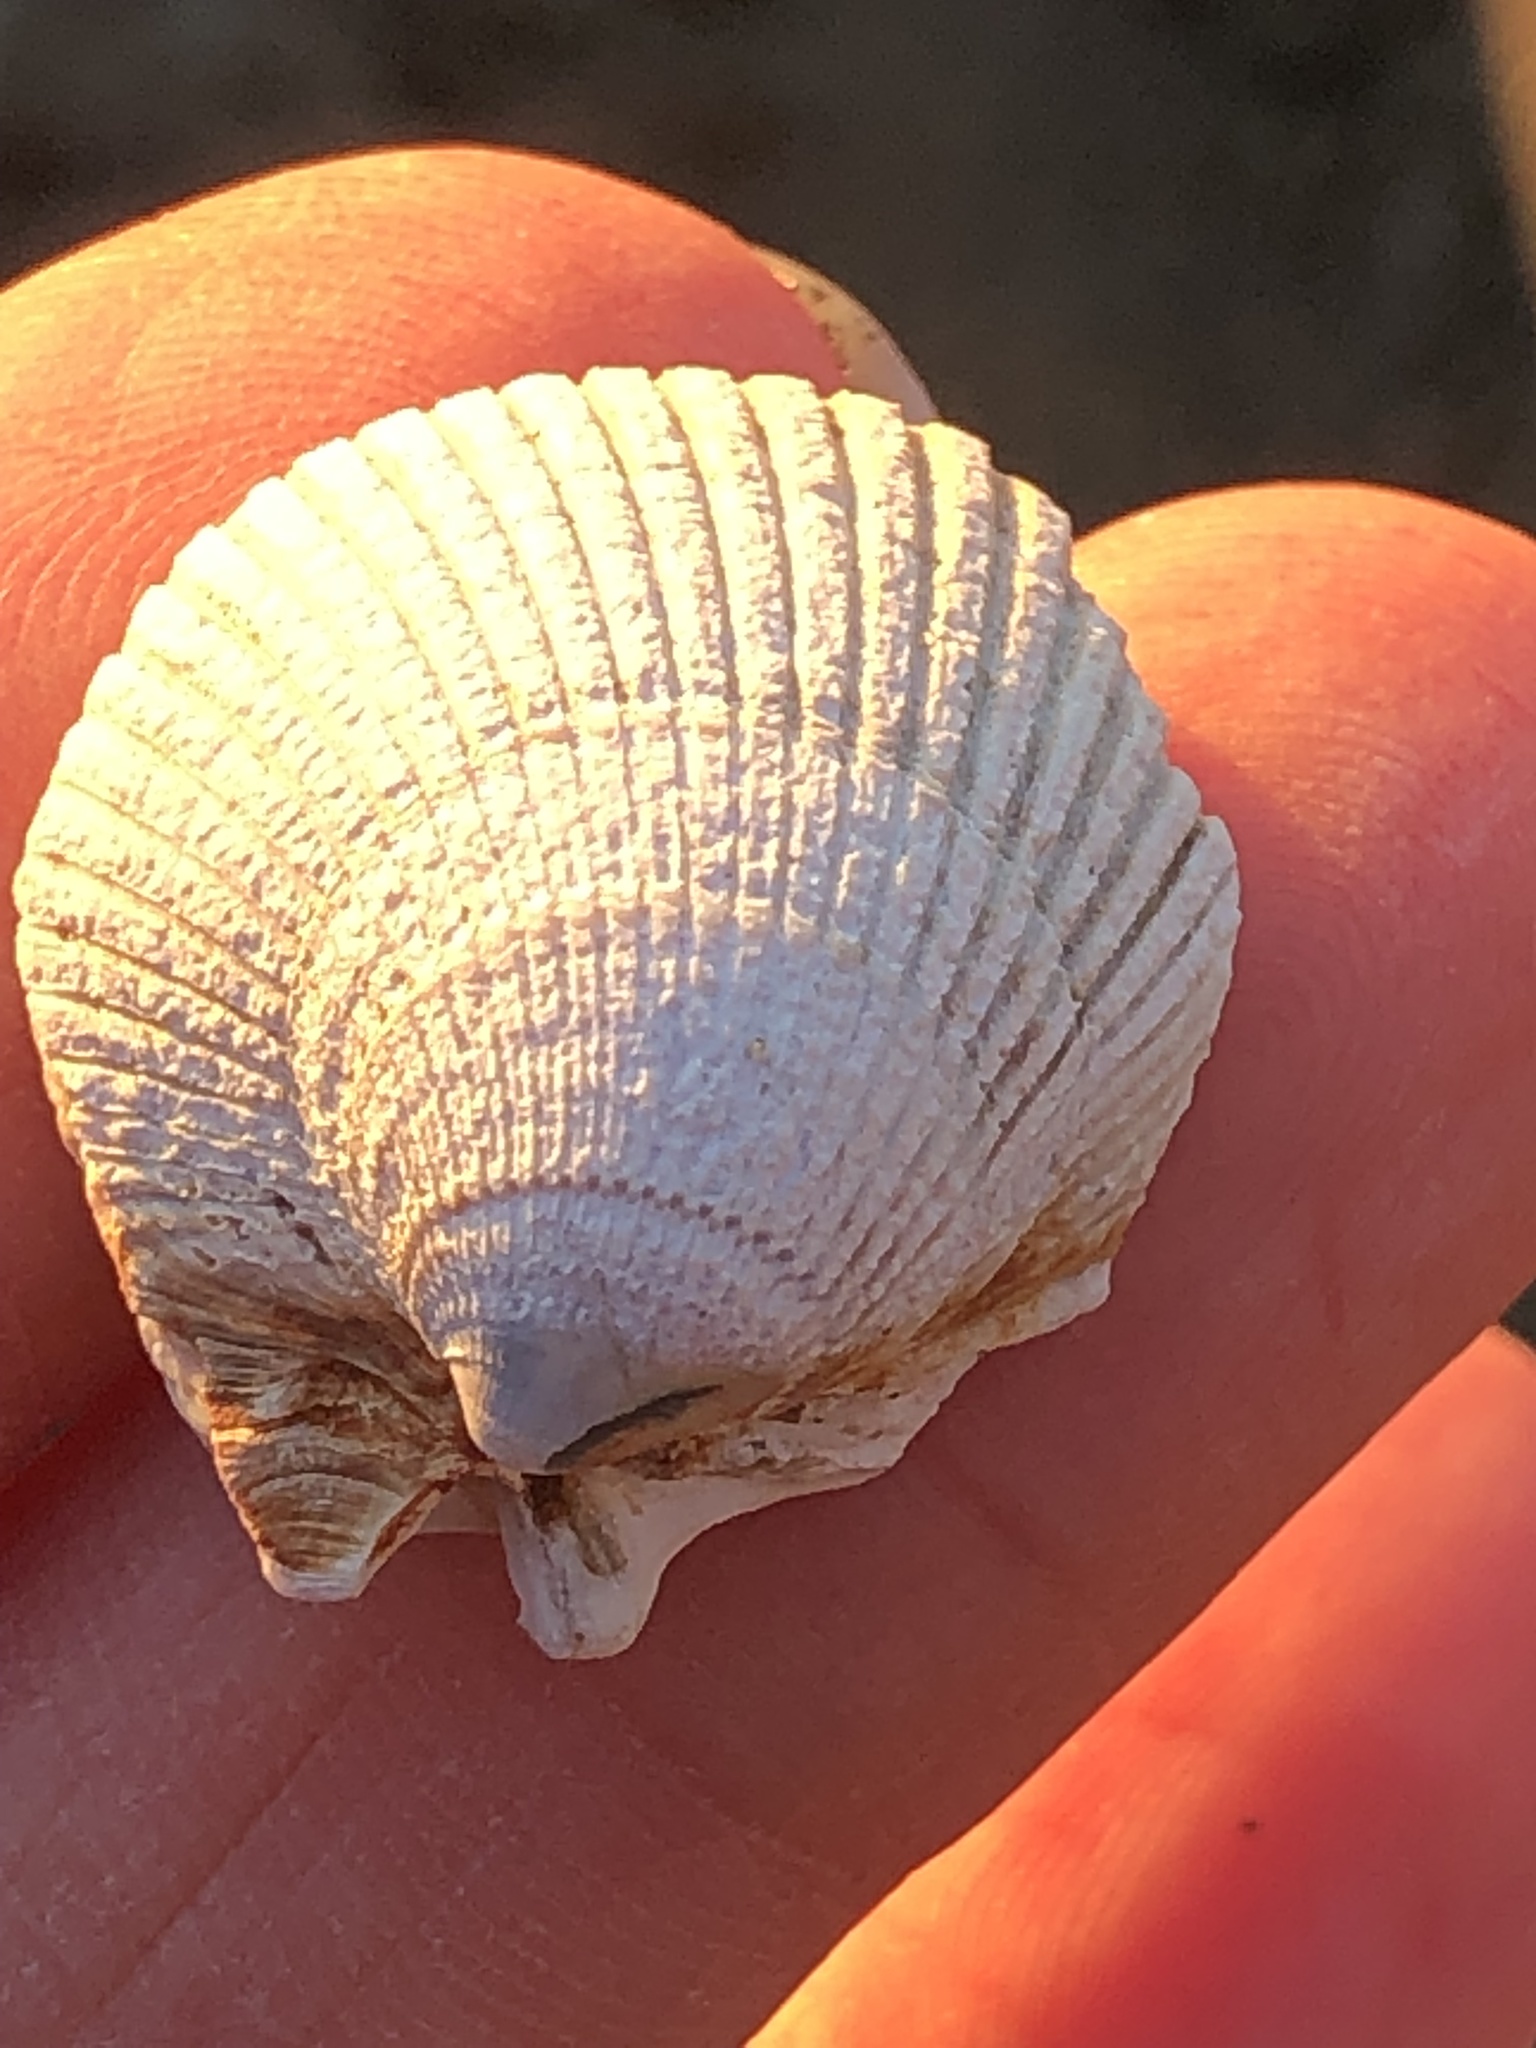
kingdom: Animalia
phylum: Mollusca
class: Bivalvia
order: Cardiida
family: Cardiidae
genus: Clinocardium
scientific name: Clinocardium nuttallii
